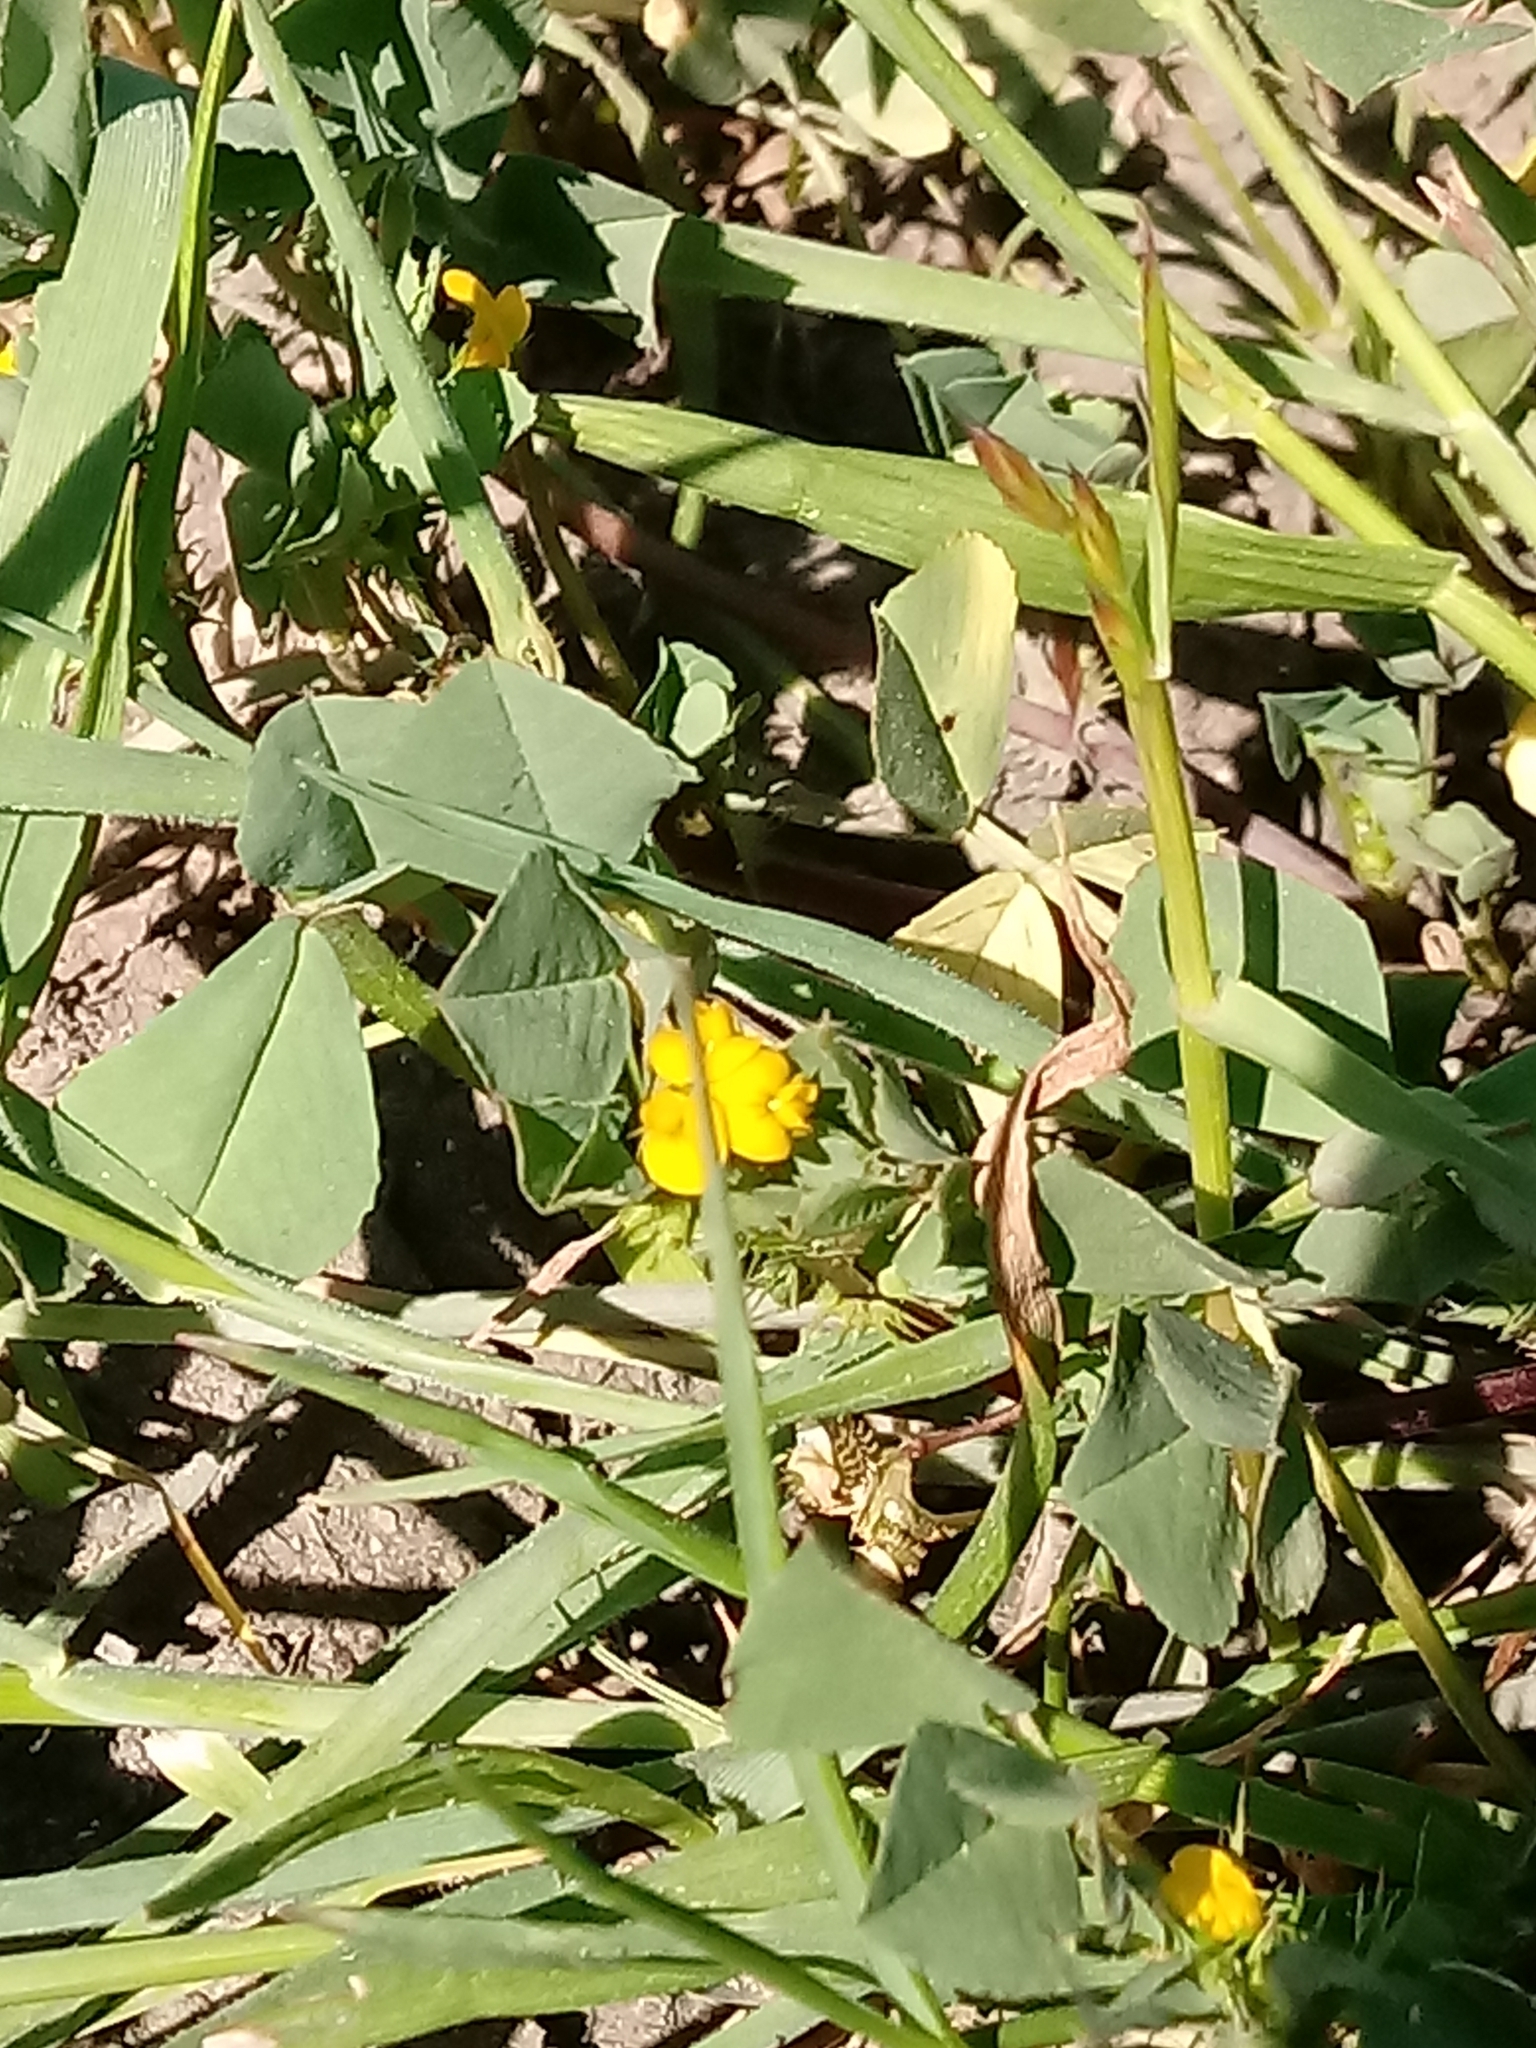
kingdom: Plantae
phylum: Tracheophyta
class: Magnoliopsida
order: Fabales
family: Fabaceae
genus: Medicago
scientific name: Medicago polymorpha
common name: Burclover
